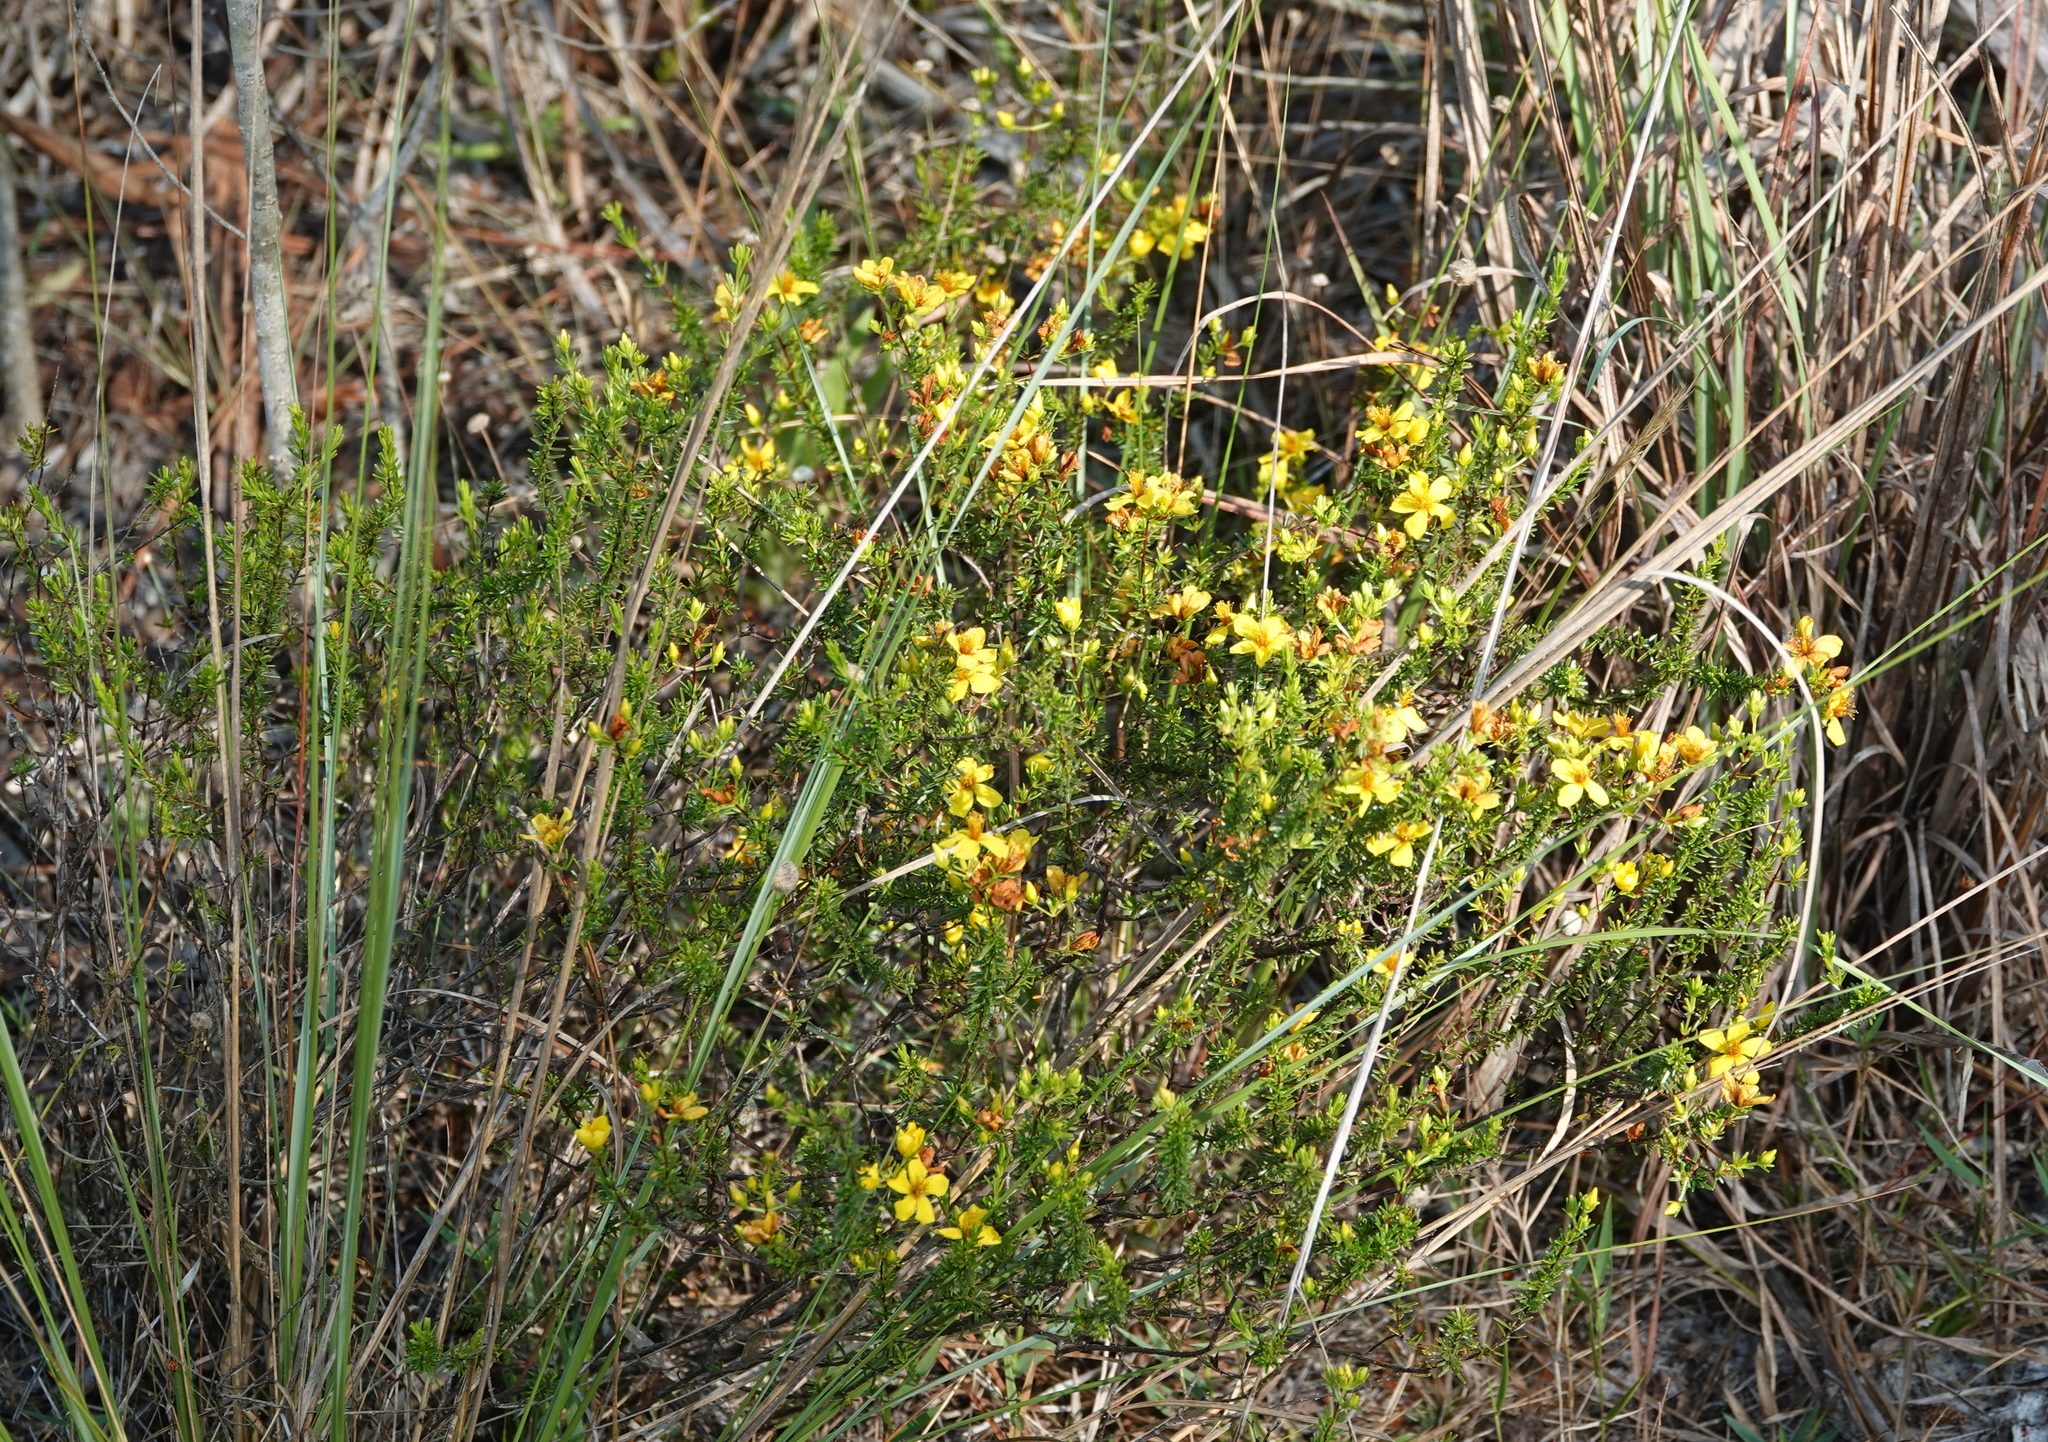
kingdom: Plantae
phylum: Tracheophyta
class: Magnoliopsida
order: Malpighiales
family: Hypericaceae
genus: Hypericum
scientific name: Hypericum tenuifolium
